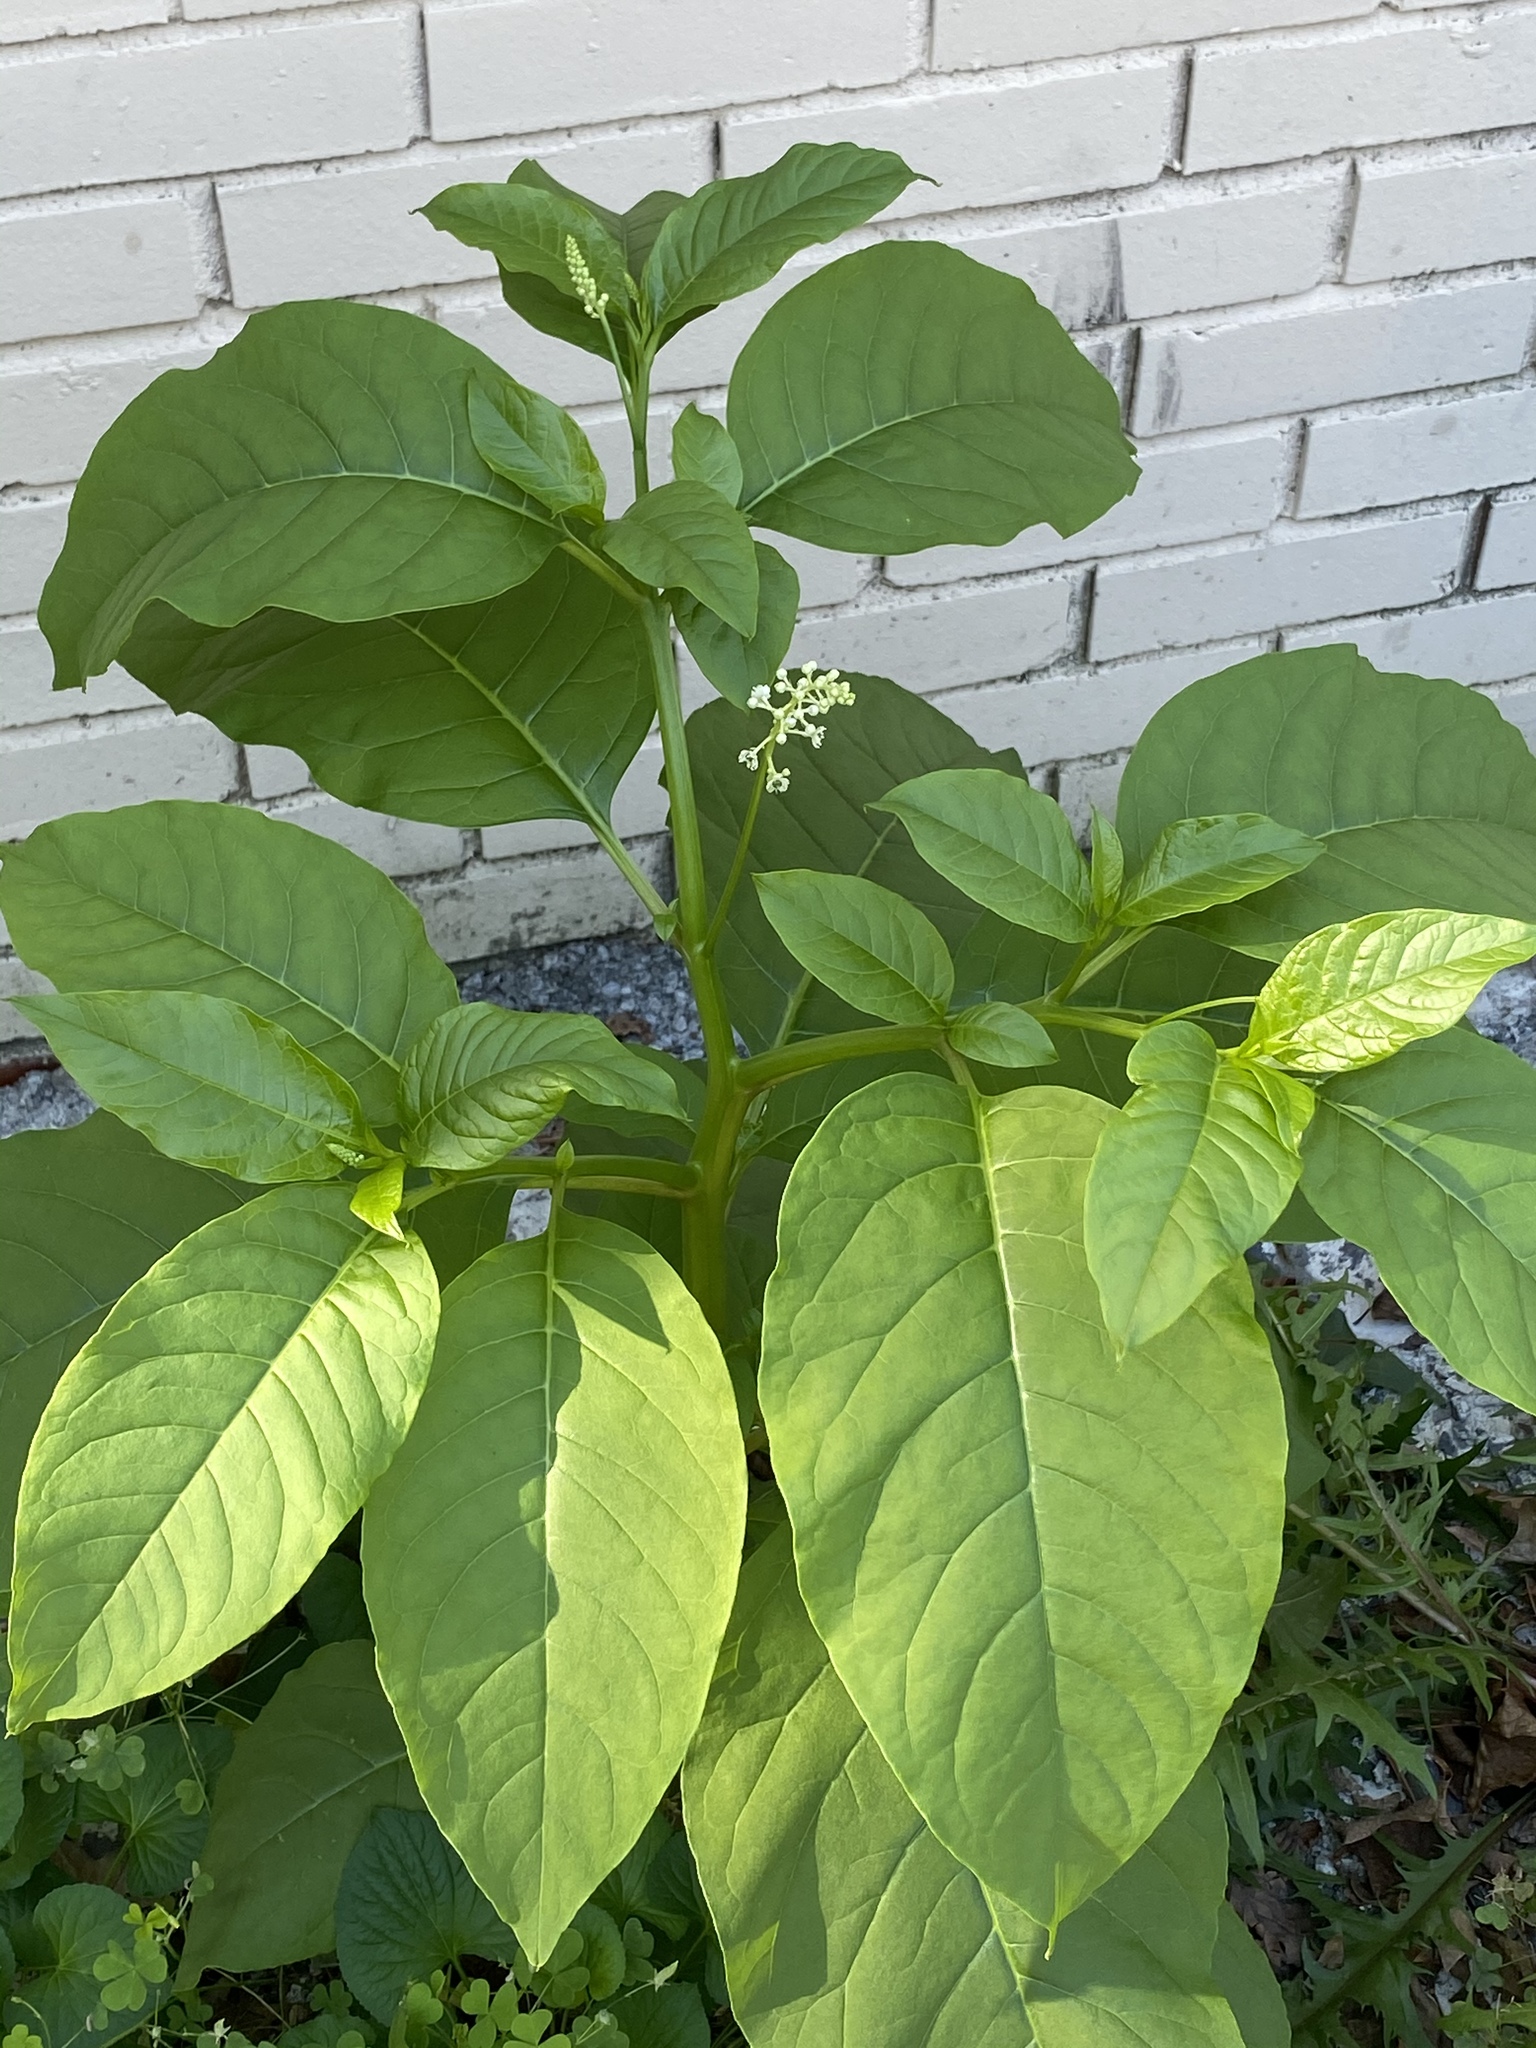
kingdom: Plantae
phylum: Tracheophyta
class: Magnoliopsida
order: Caryophyllales
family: Phytolaccaceae
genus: Phytolacca
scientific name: Phytolacca americana
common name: American pokeweed
